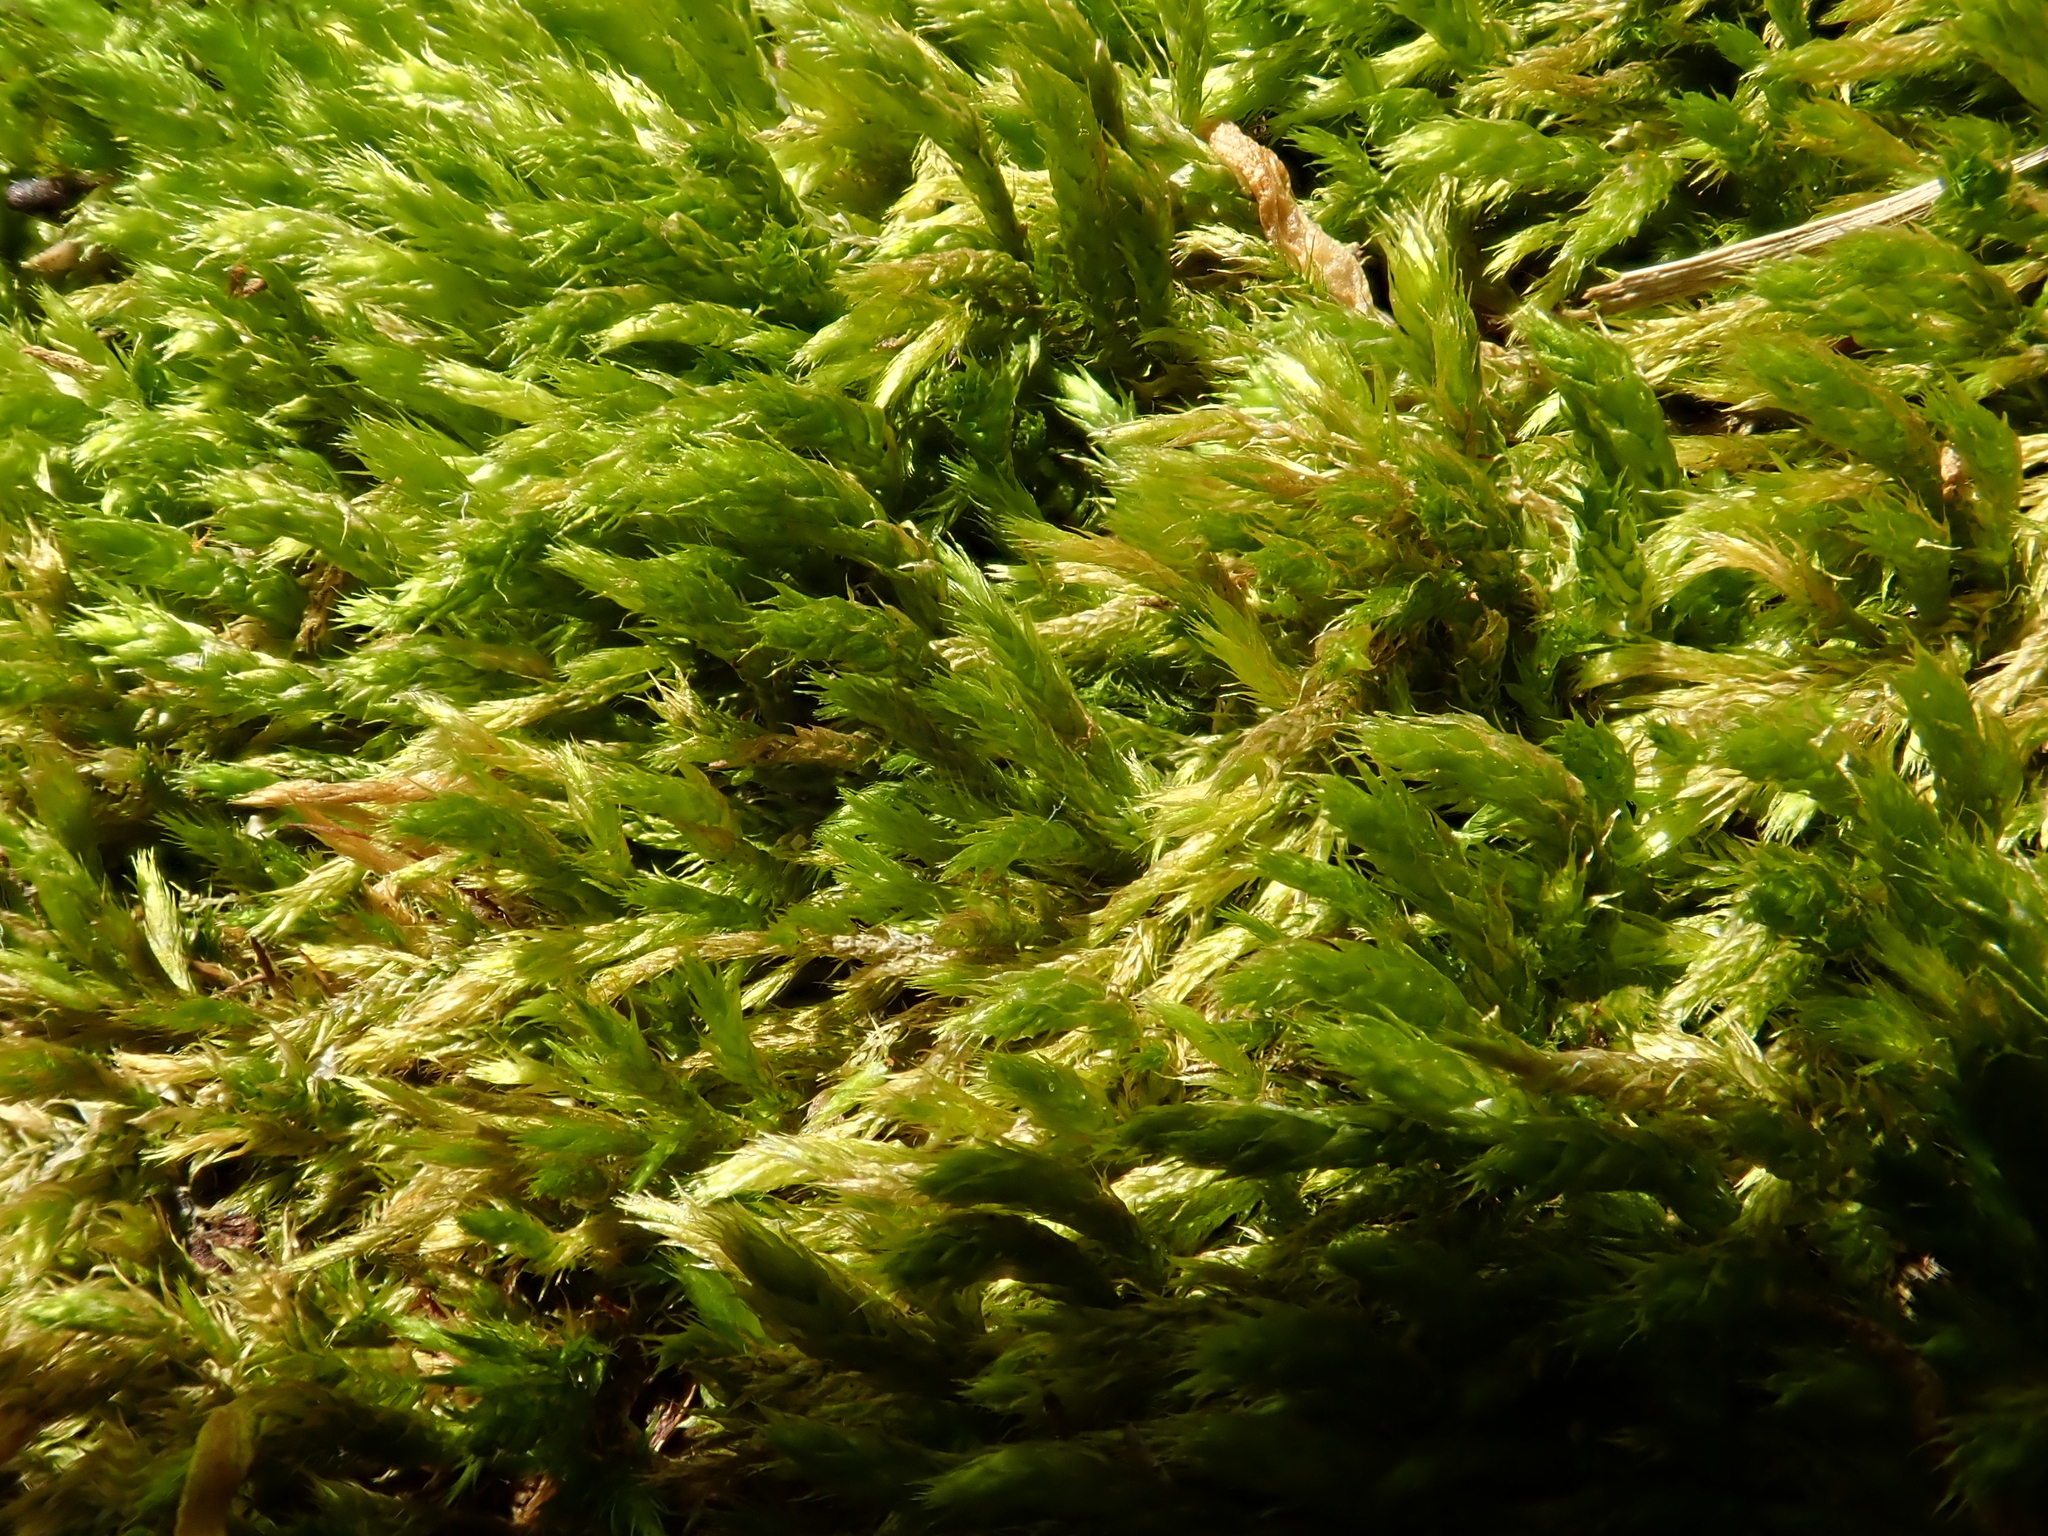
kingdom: Plantae
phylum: Bryophyta
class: Bryopsida
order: Hypnales
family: Brachytheciaceae
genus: Cirriphyllum
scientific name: Cirriphyllum crassinervium
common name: Beech feather-moss
